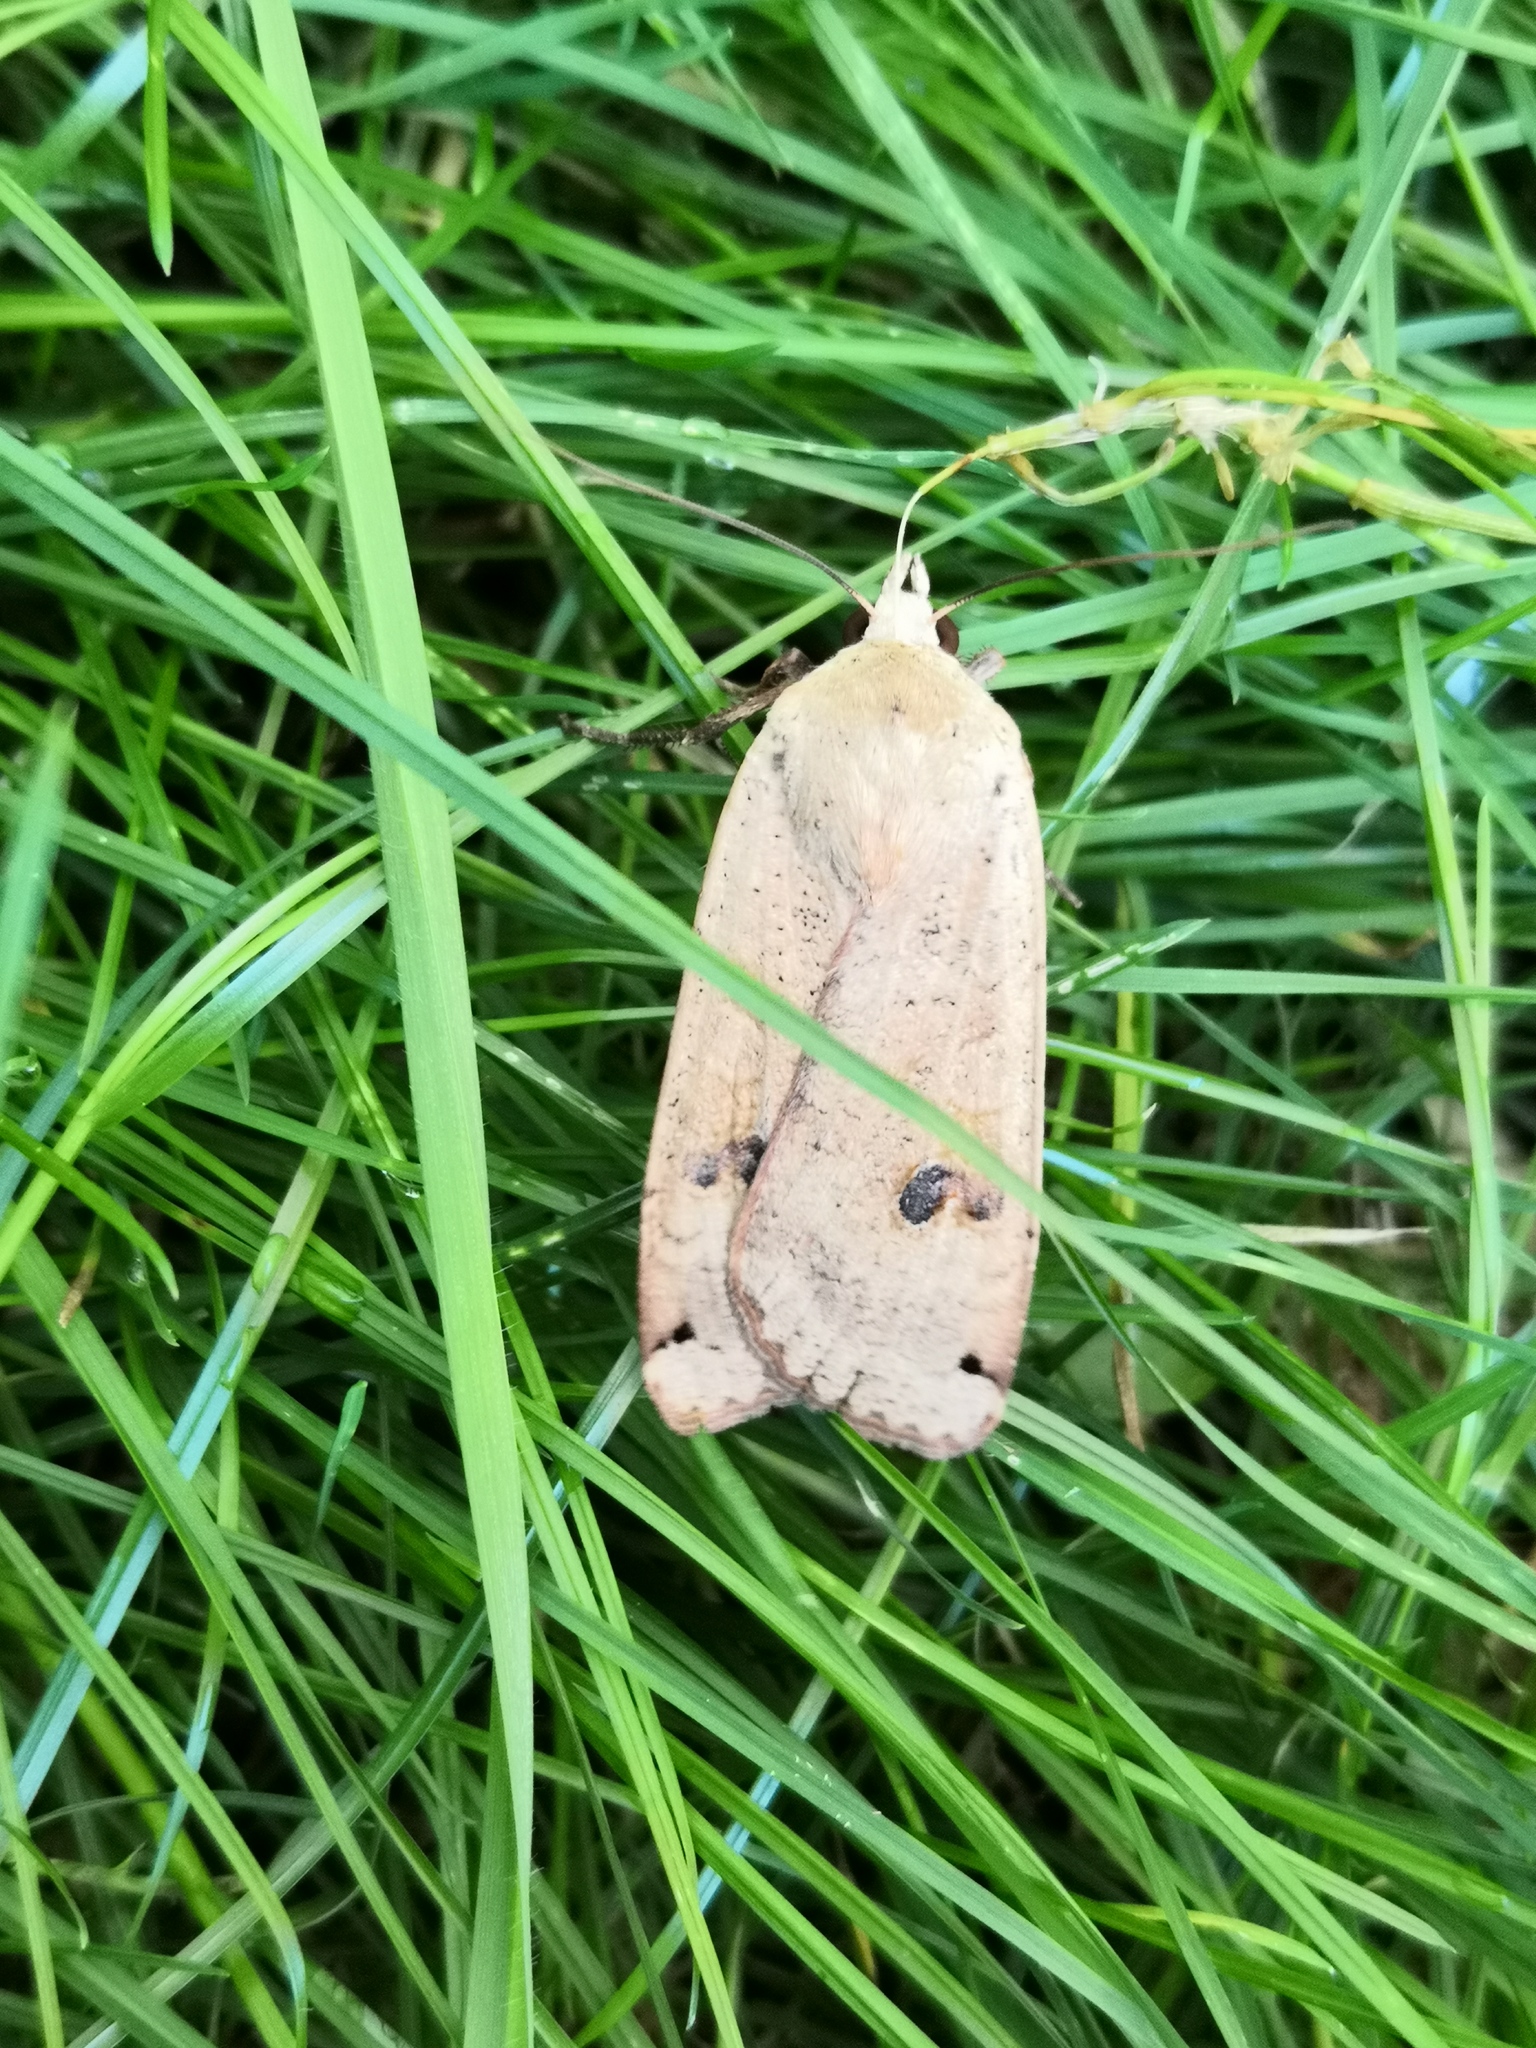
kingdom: Animalia
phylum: Arthropoda
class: Insecta
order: Lepidoptera
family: Noctuidae
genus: Noctua
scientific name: Noctua pronuba
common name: Large yellow underwing
